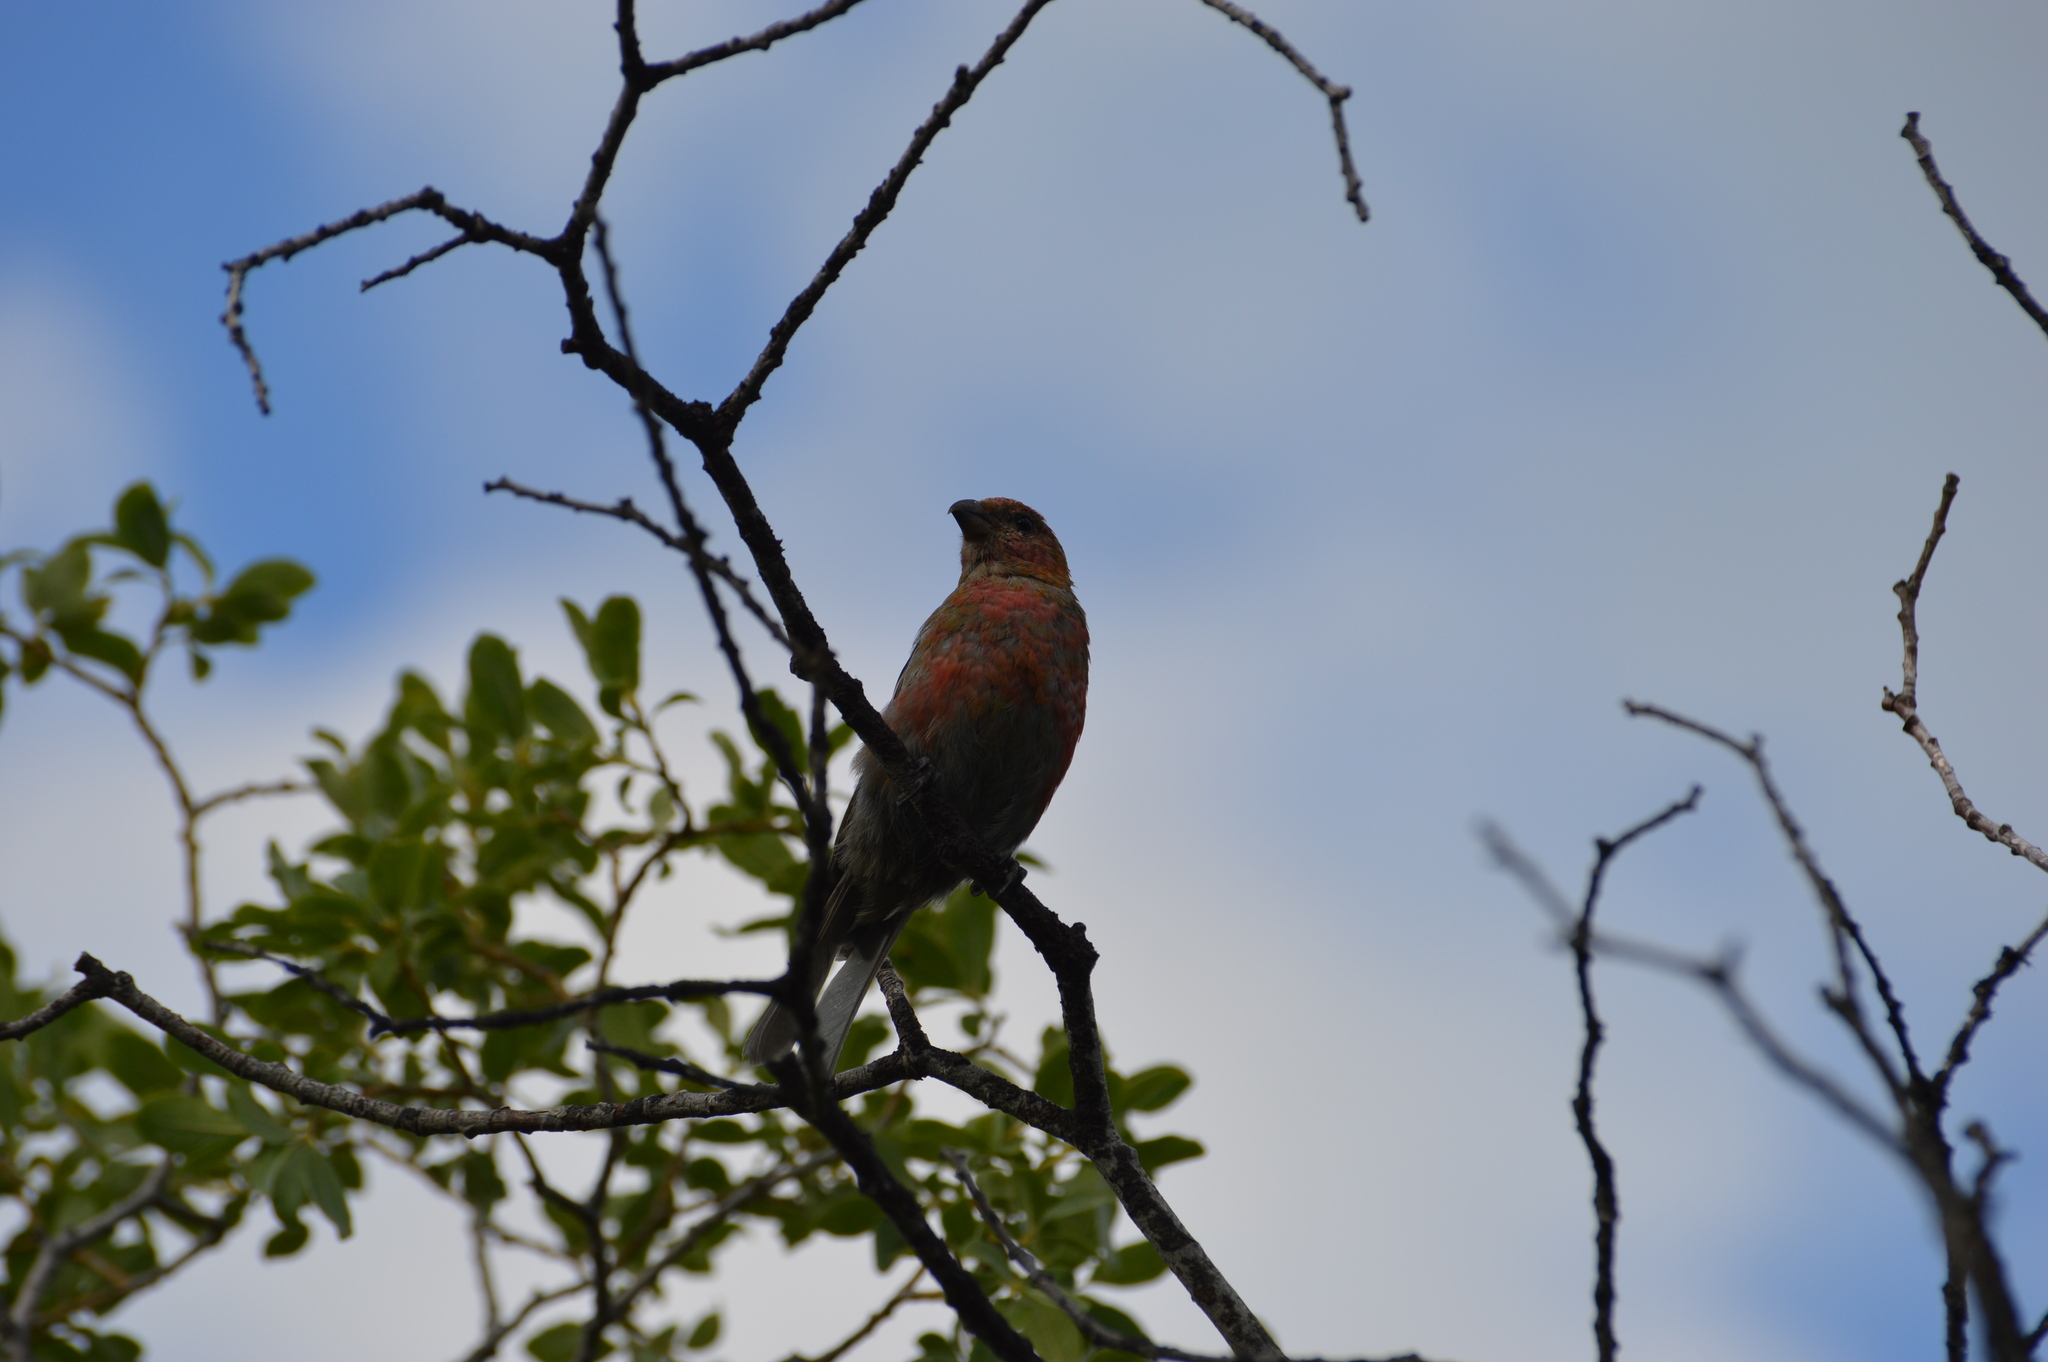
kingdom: Animalia
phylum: Chordata
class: Aves
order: Passeriformes
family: Fringillidae
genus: Pinicola
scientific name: Pinicola enucleator
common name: Pine grosbeak
